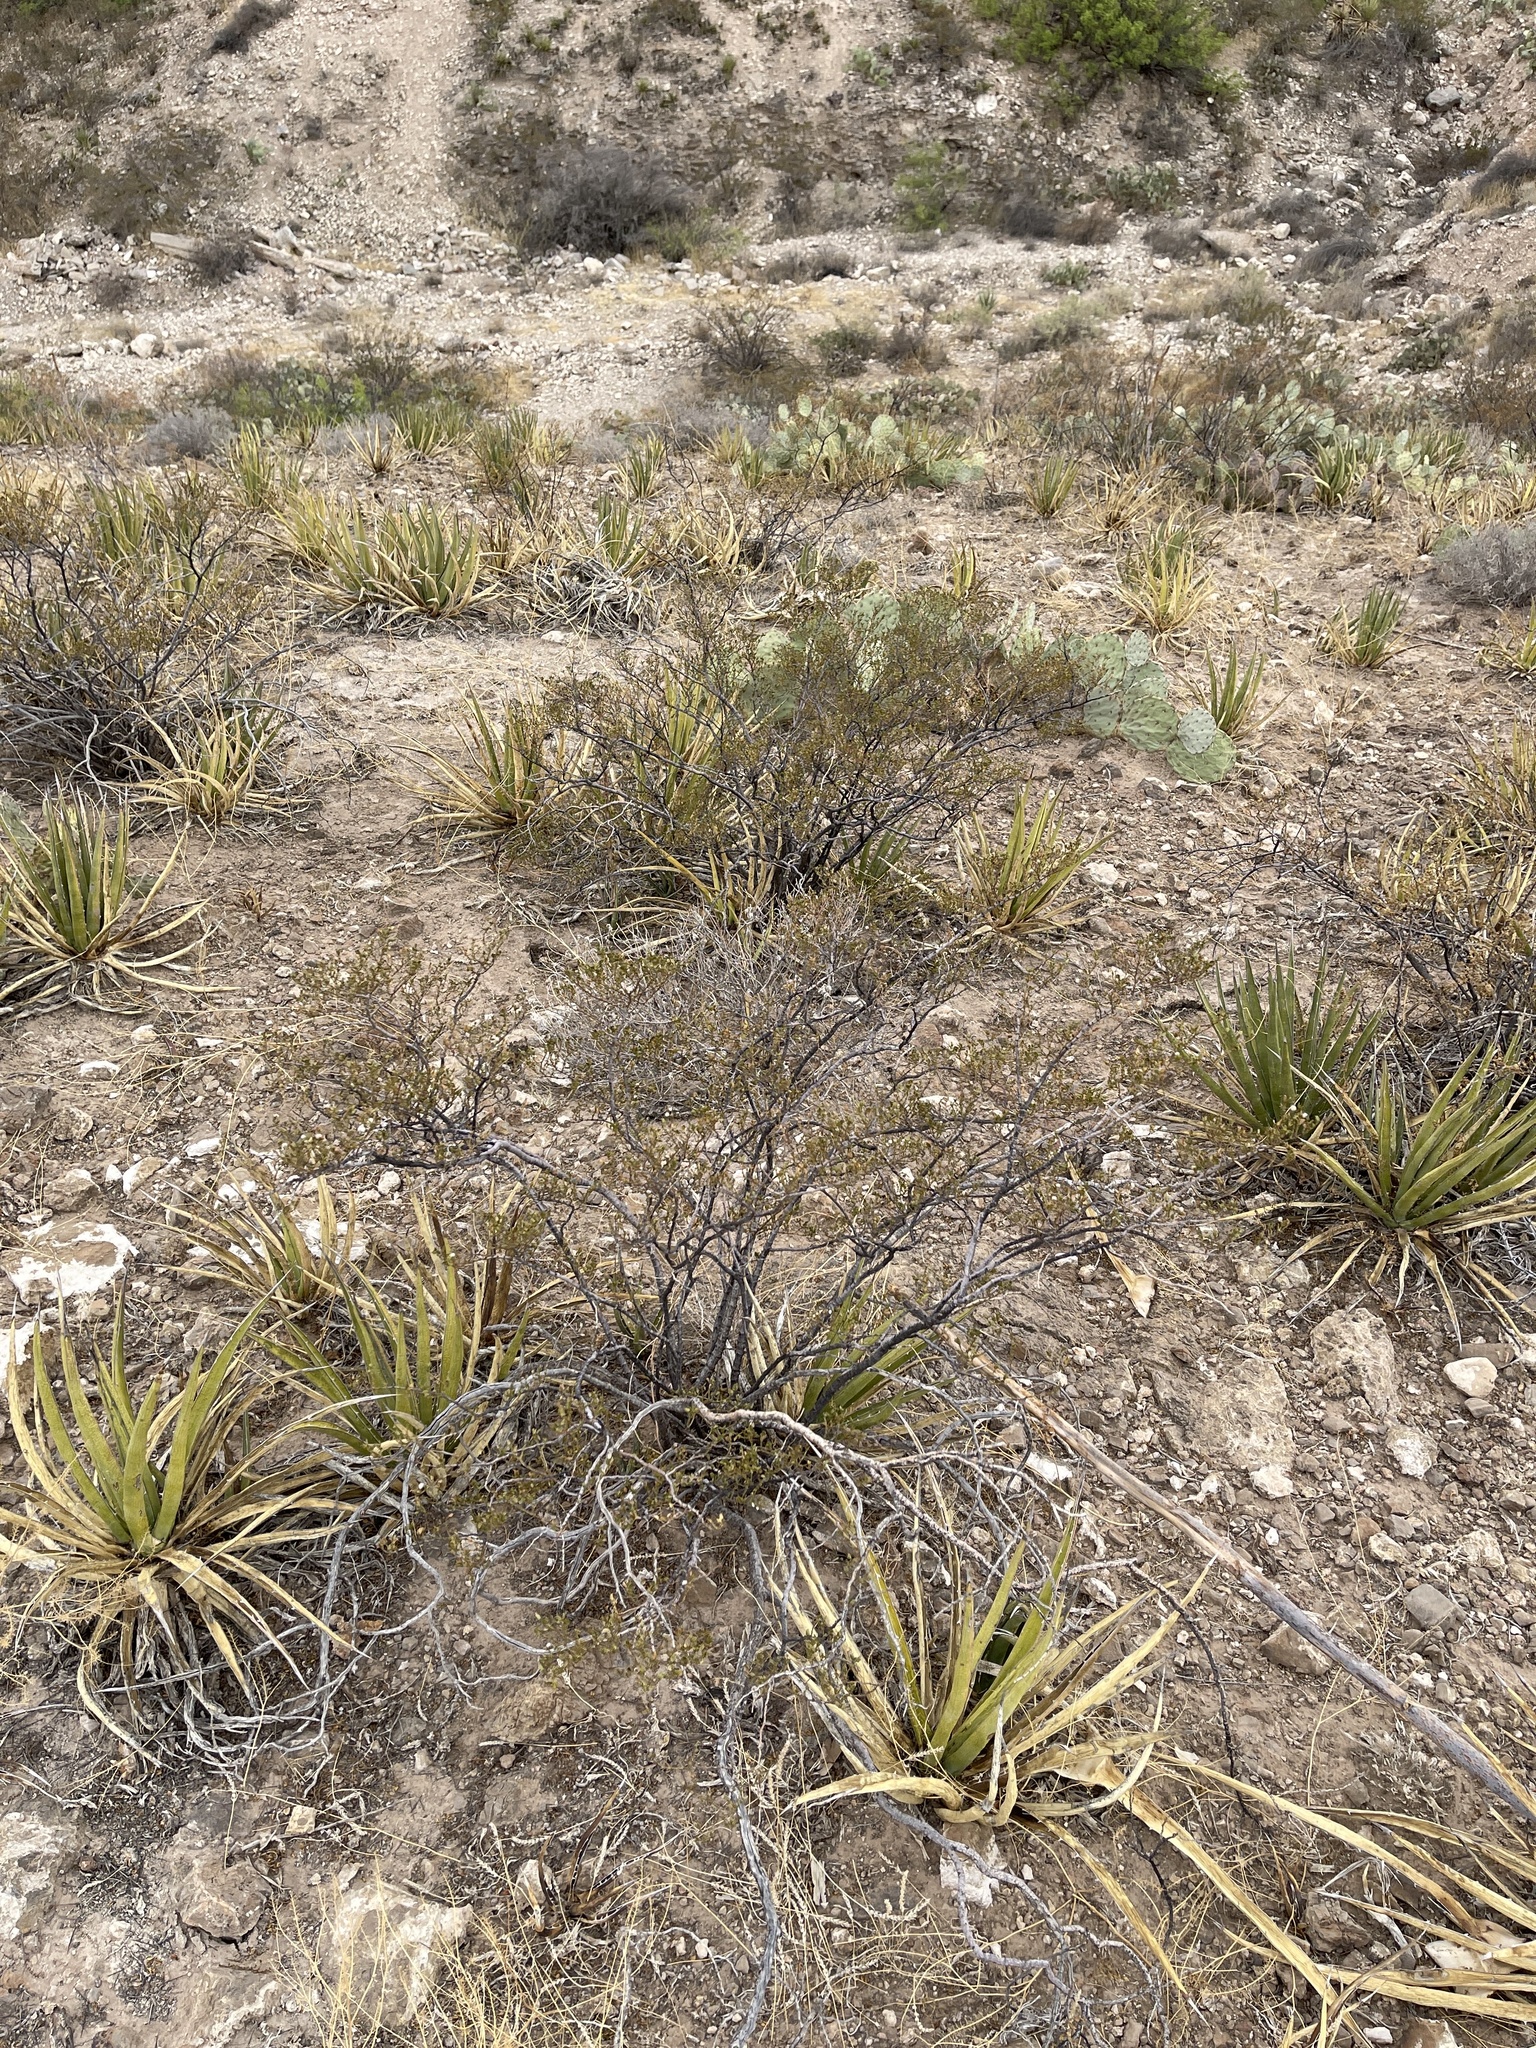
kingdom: Plantae
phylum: Tracheophyta
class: Magnoliopsida
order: Zygophyllales
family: Zygophyllaceae
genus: Larrea
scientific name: Larrea tridentata
